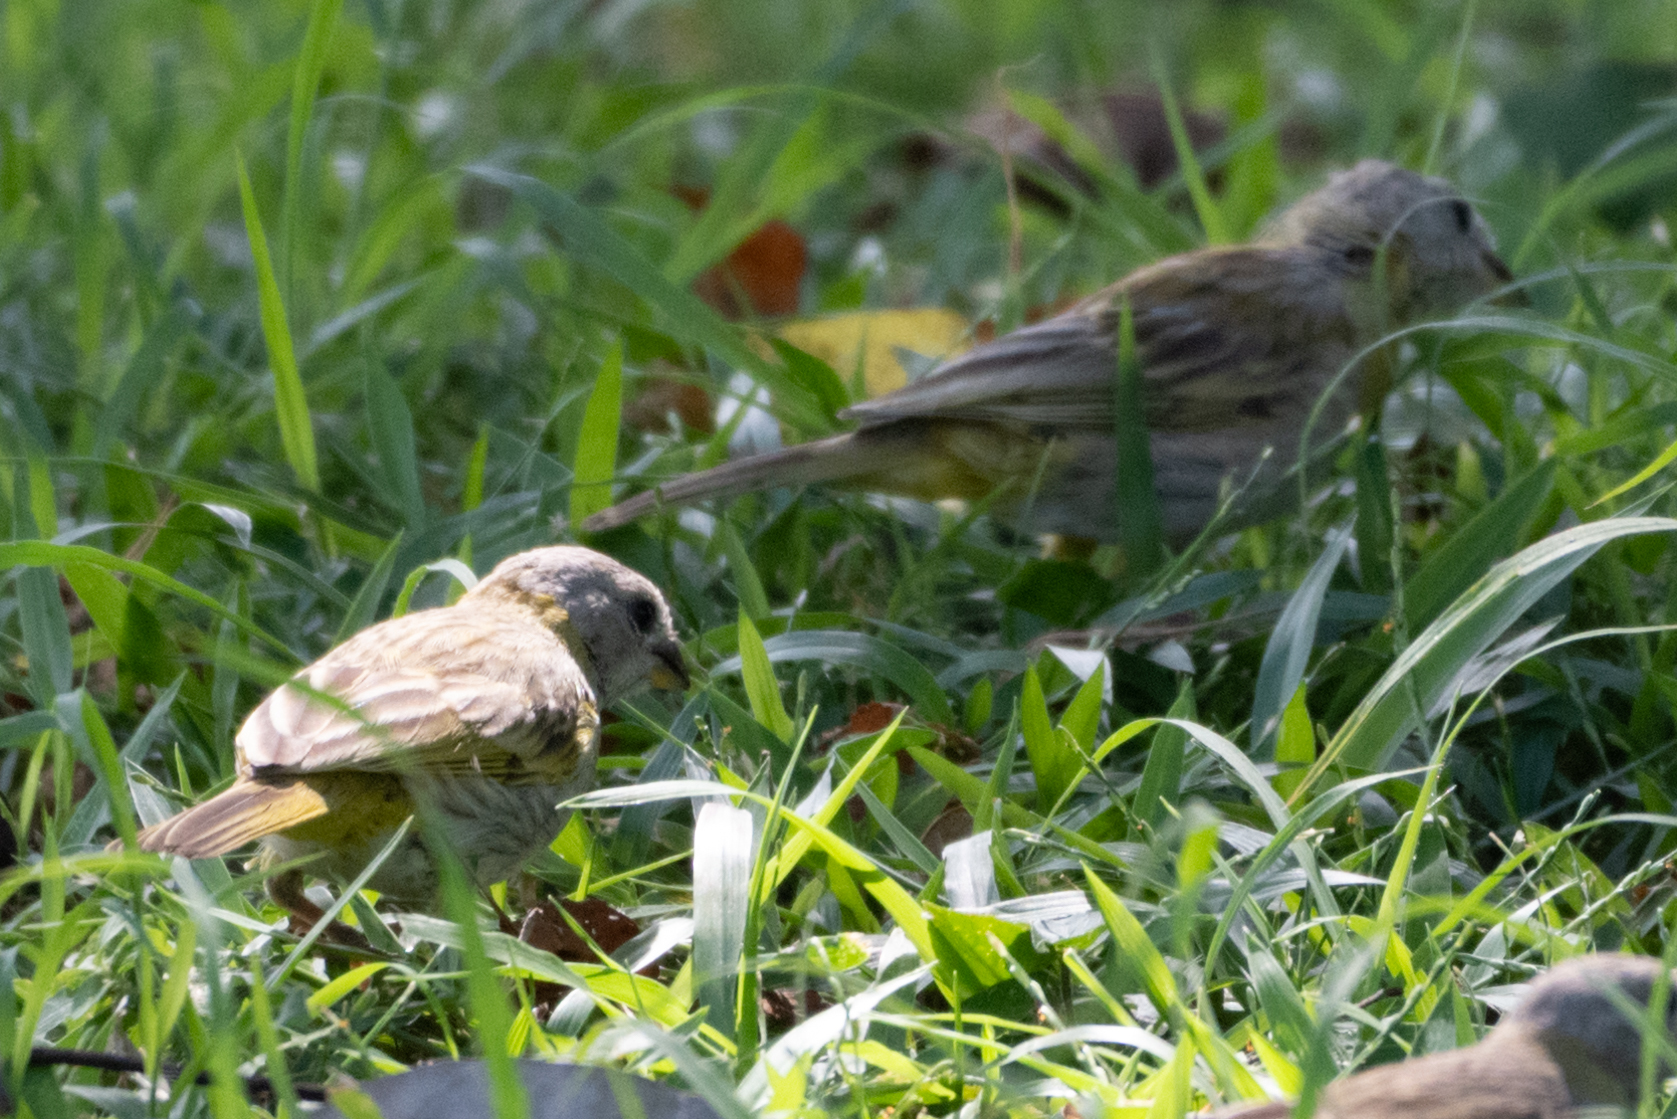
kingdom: Animalia
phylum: Chordata
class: Aves
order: Passeriformes
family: Thraupidae
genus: Sicalis
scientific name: Sicalis flaveola
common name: Saffron finch
